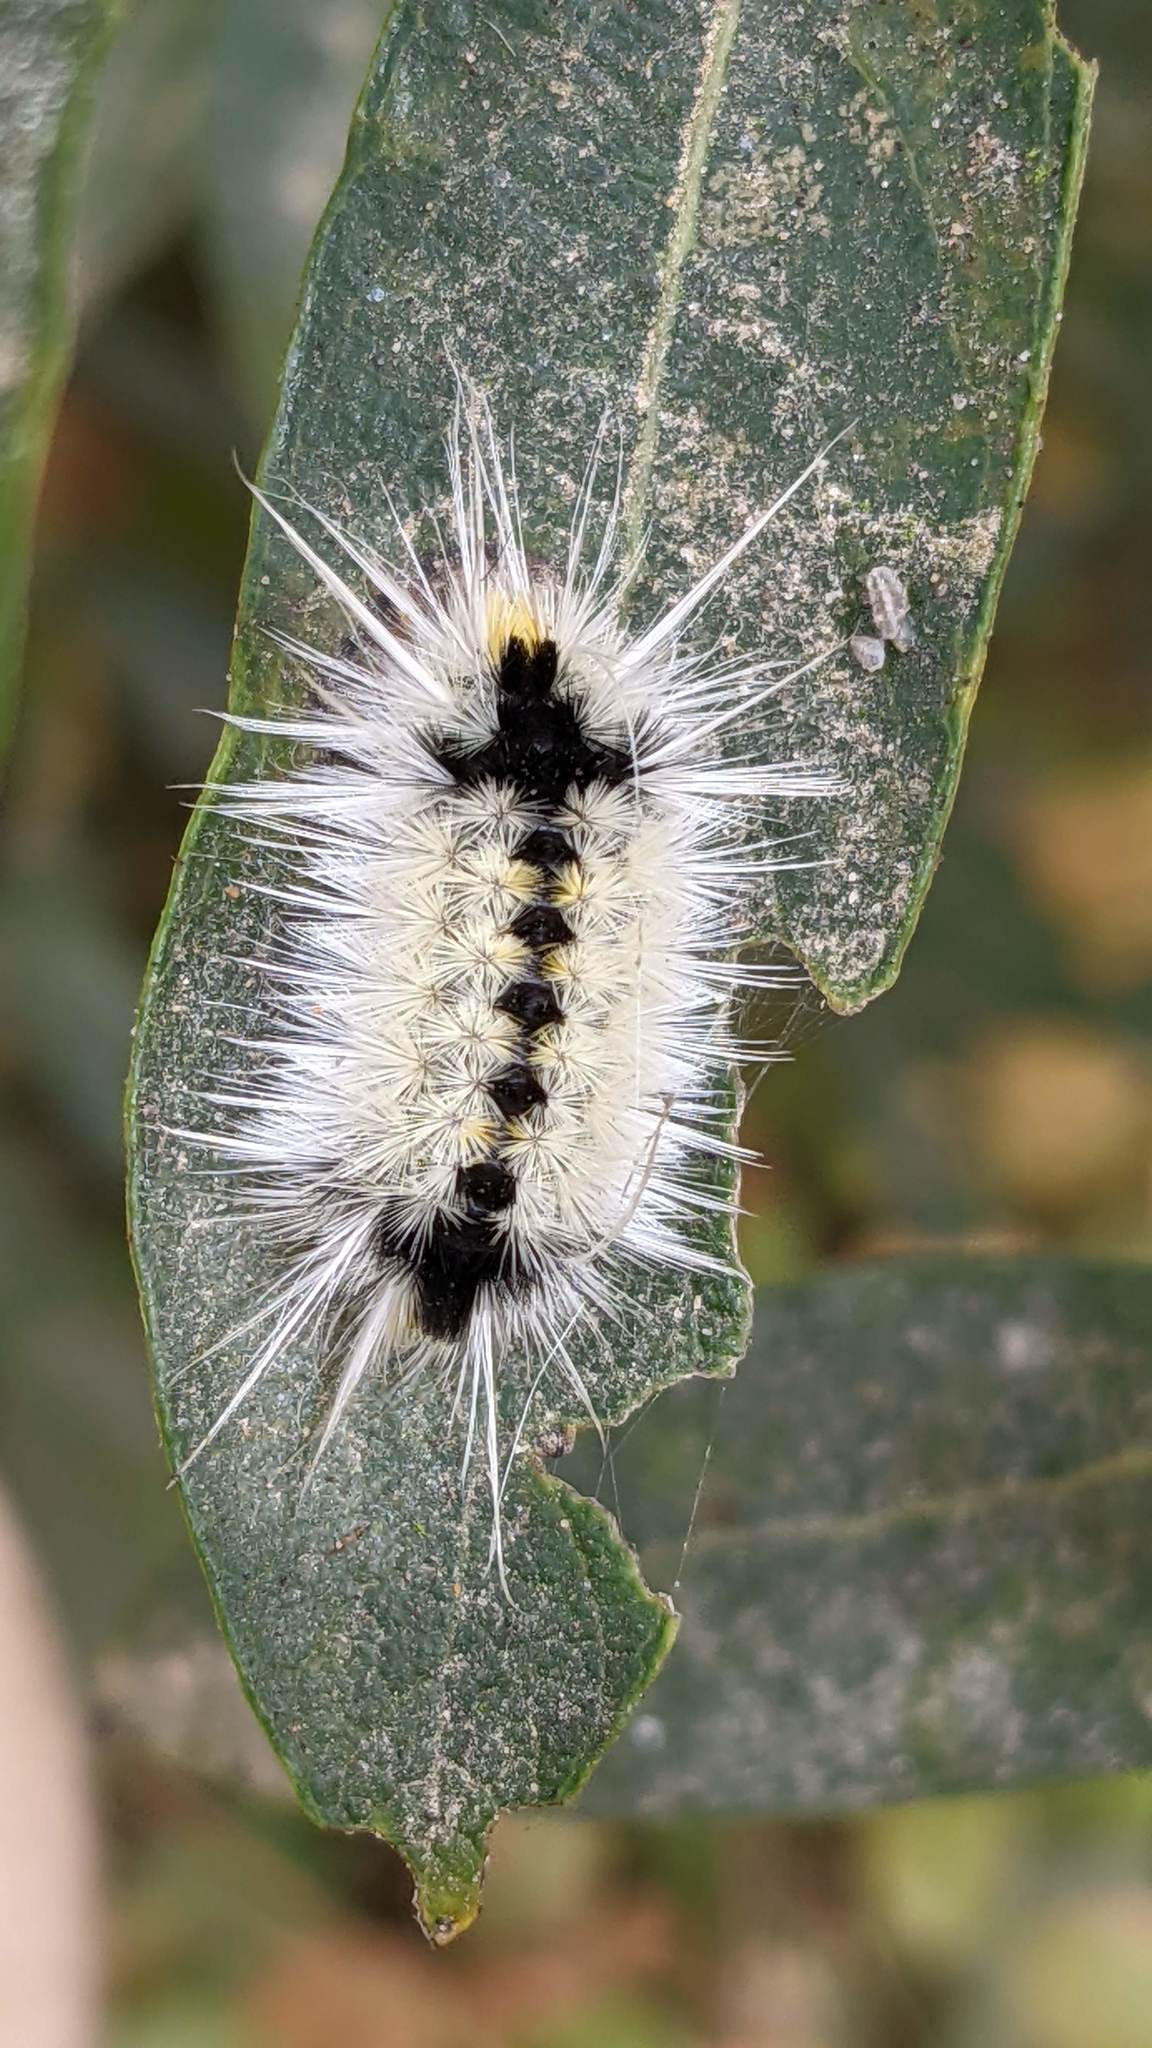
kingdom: Animalia
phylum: Arthropoda
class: Insecta
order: Lepidoptera
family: Erebidae
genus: Lophocampa
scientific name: Lophocampa maculata
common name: Spotted tussock moth
